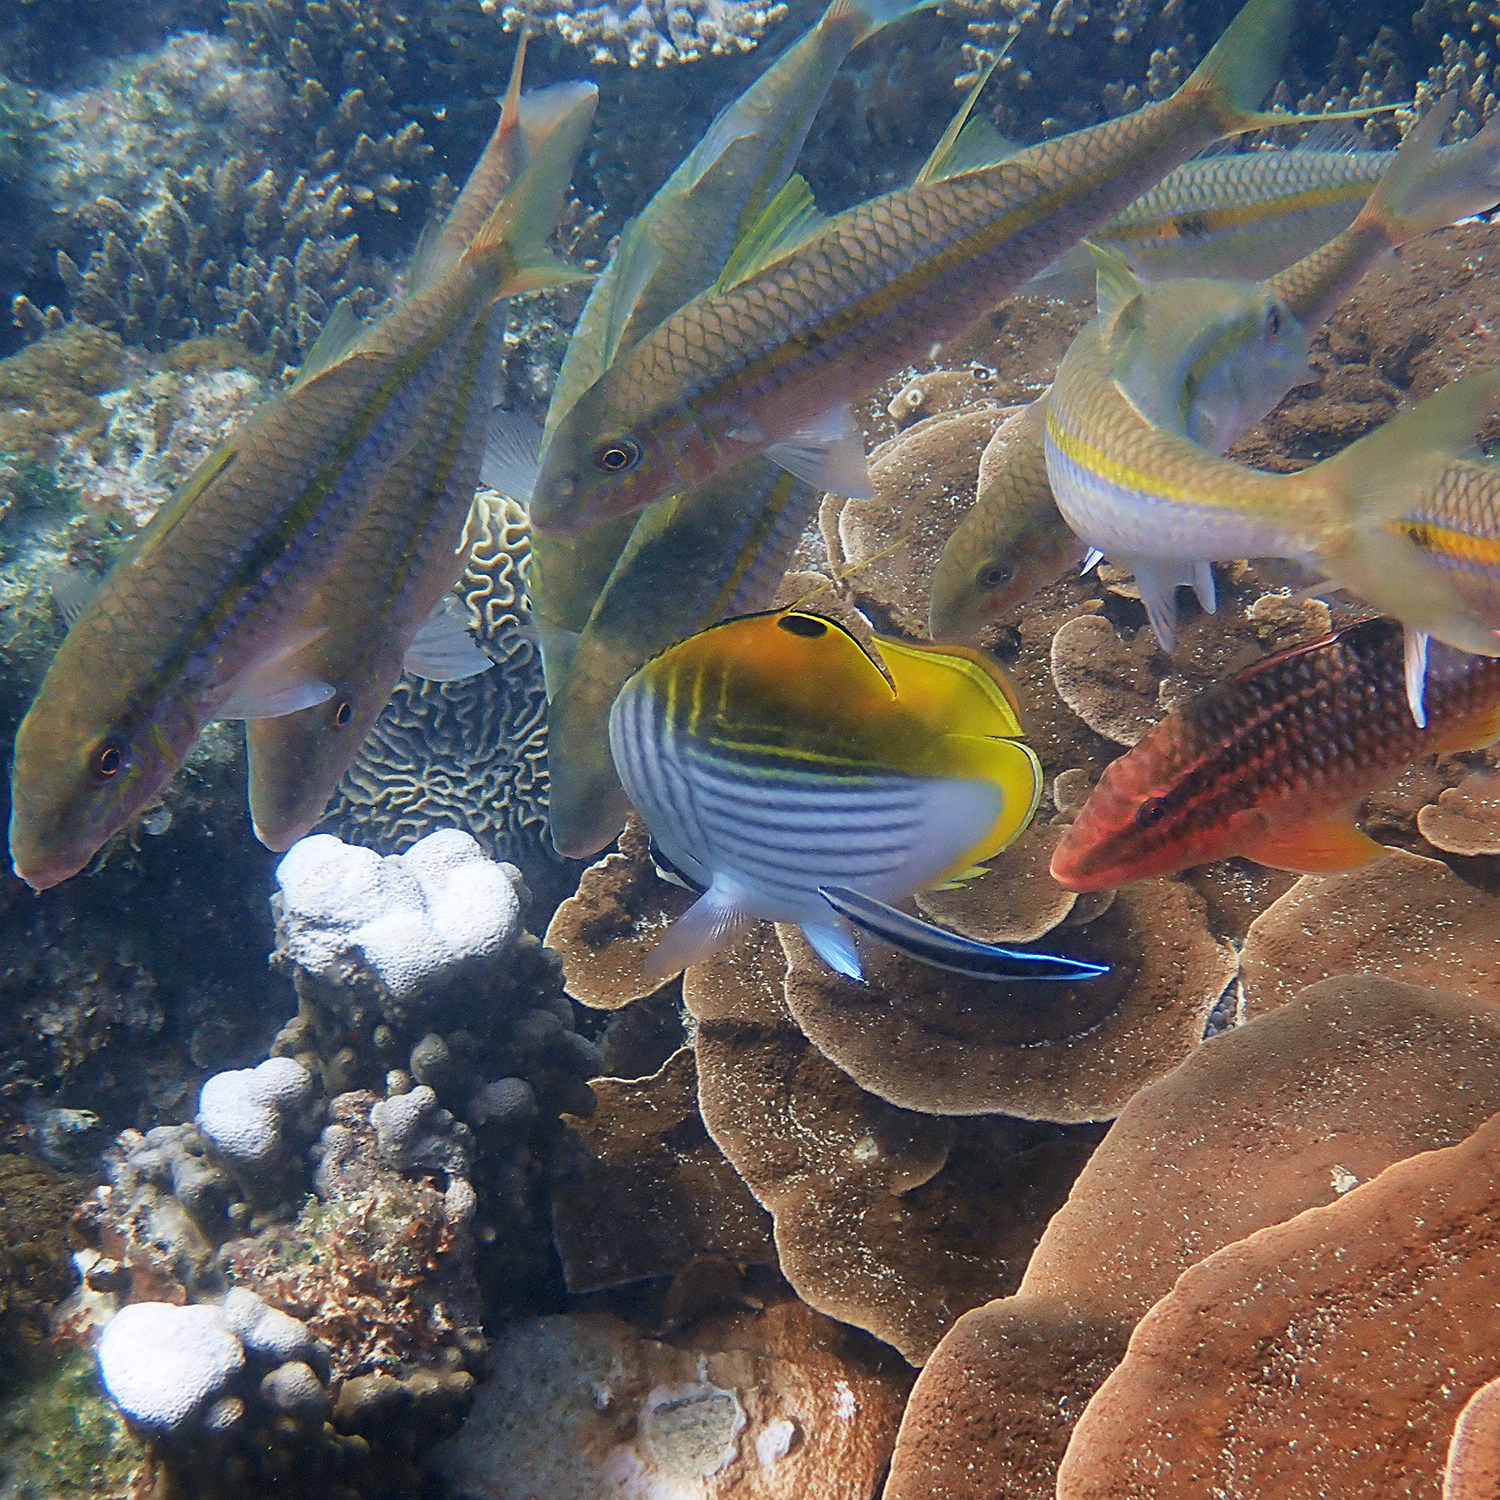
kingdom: Animalia
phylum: Chordata
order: Perciformes
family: Chaetodontidae
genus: Chaetodon
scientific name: Chaetodon auriga
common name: Threadfin butterflyfish
